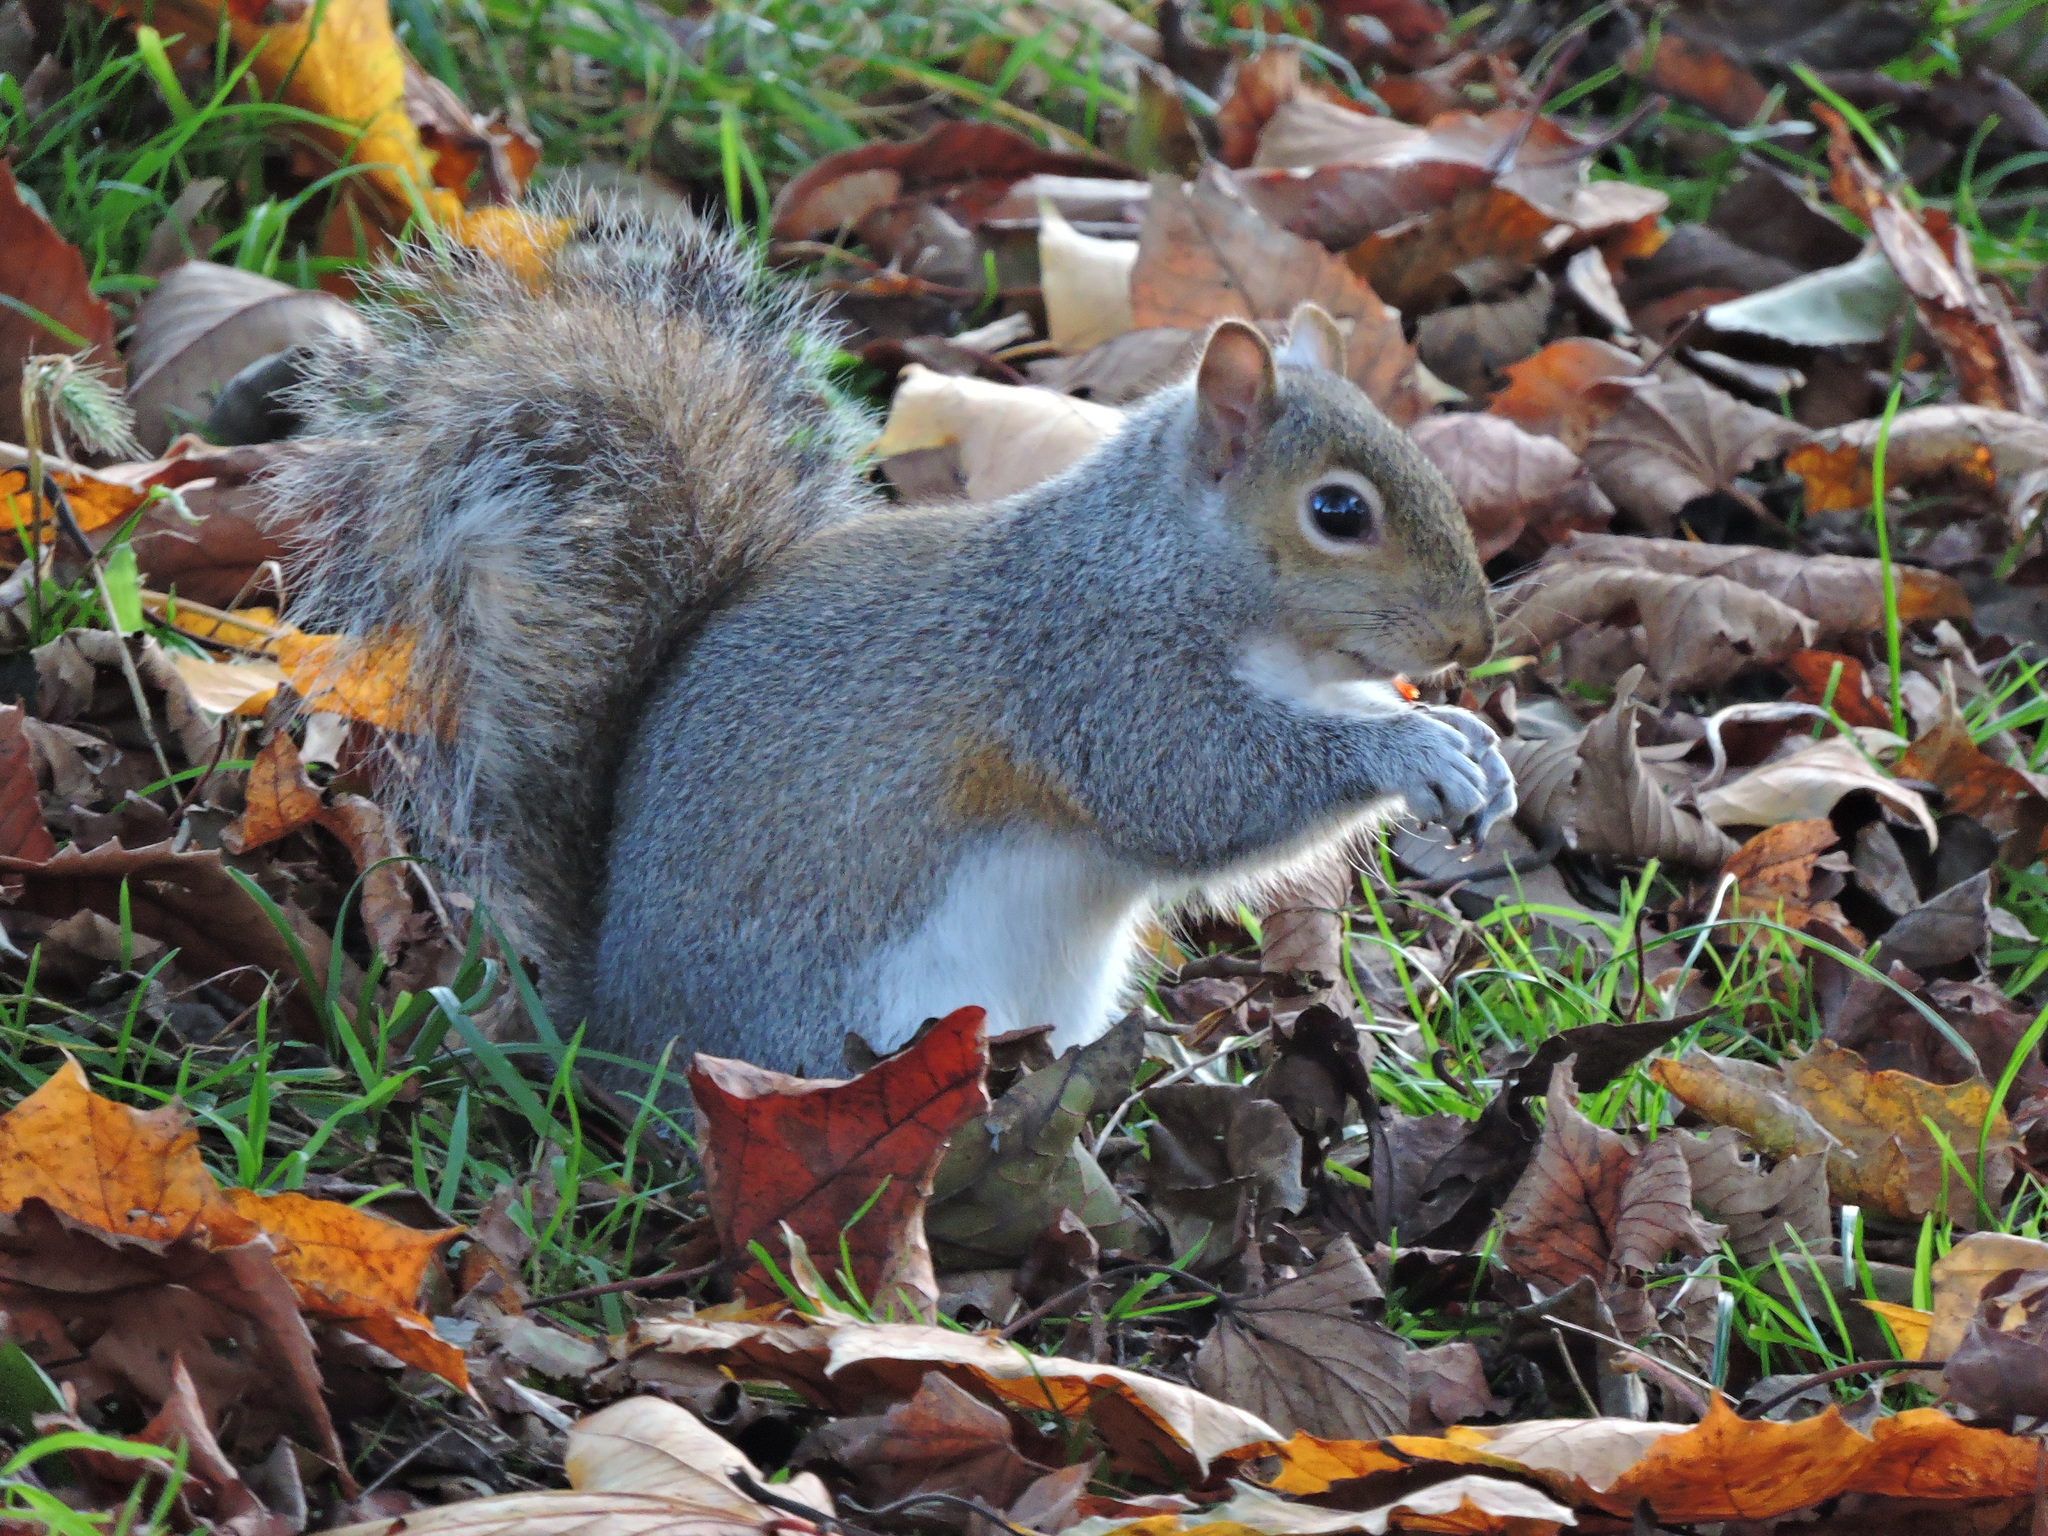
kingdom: Animalia
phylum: Chordata
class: Mammalia
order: Rodentia
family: Sciuridae
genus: Sciurus
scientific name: Sciurus carolinensis
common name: Eastern gray squirrel
